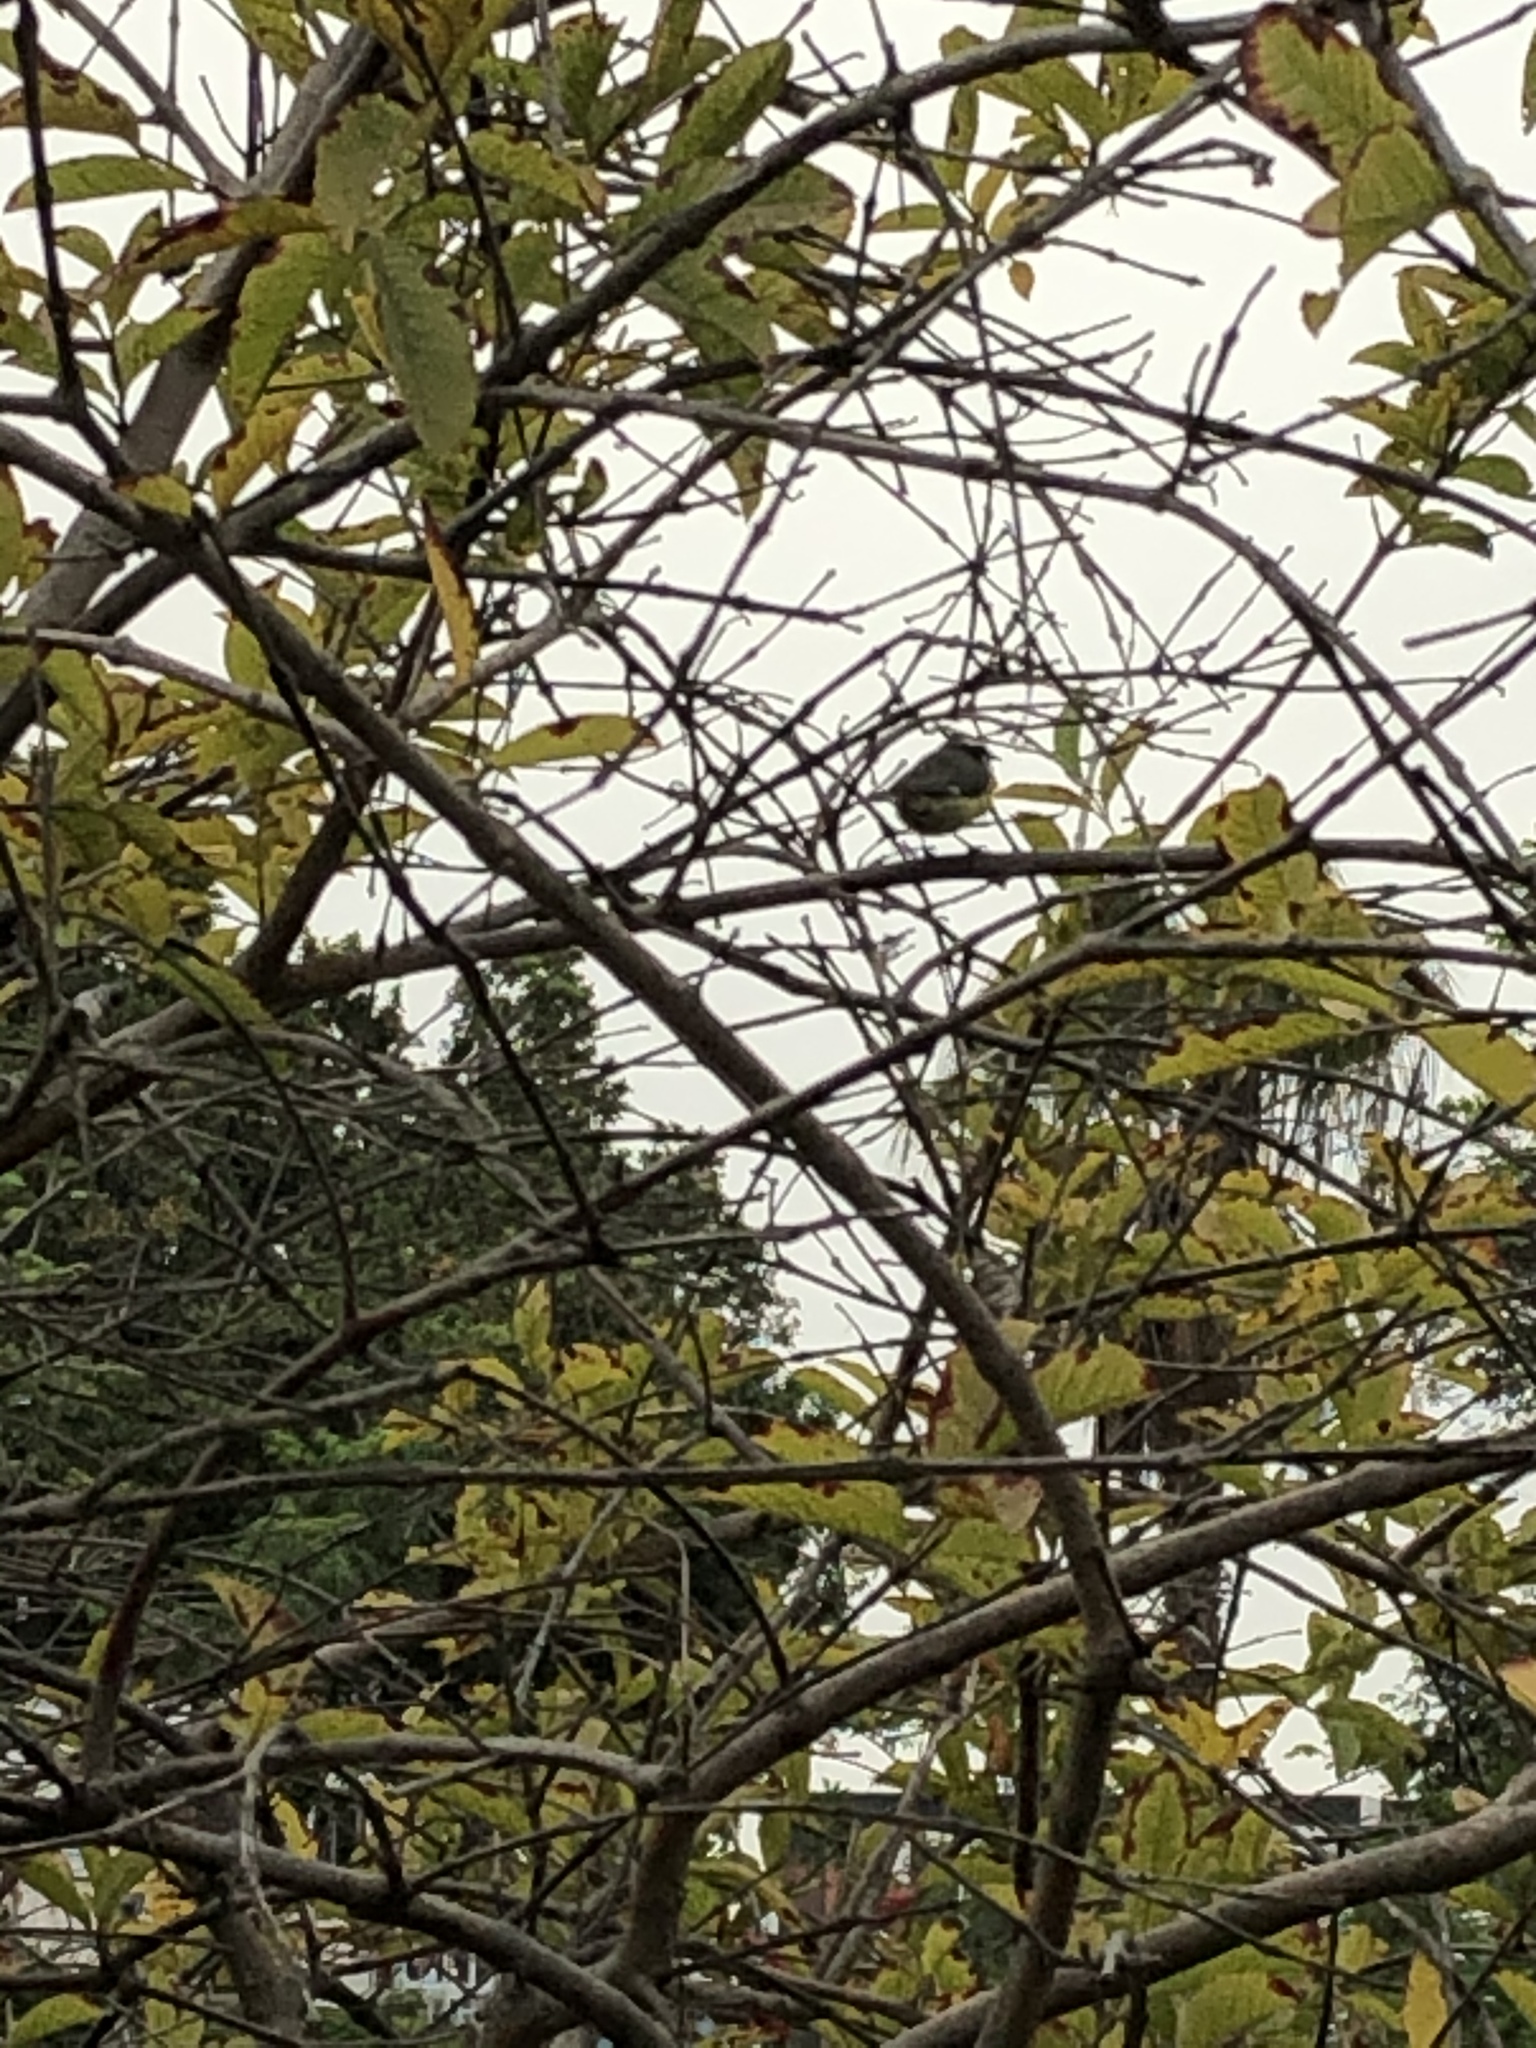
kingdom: Animalia
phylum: Chordata
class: Aves
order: Passeriformes
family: Thraupidae
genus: Coereba
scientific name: Coereba flaveola
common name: Bananaquit
